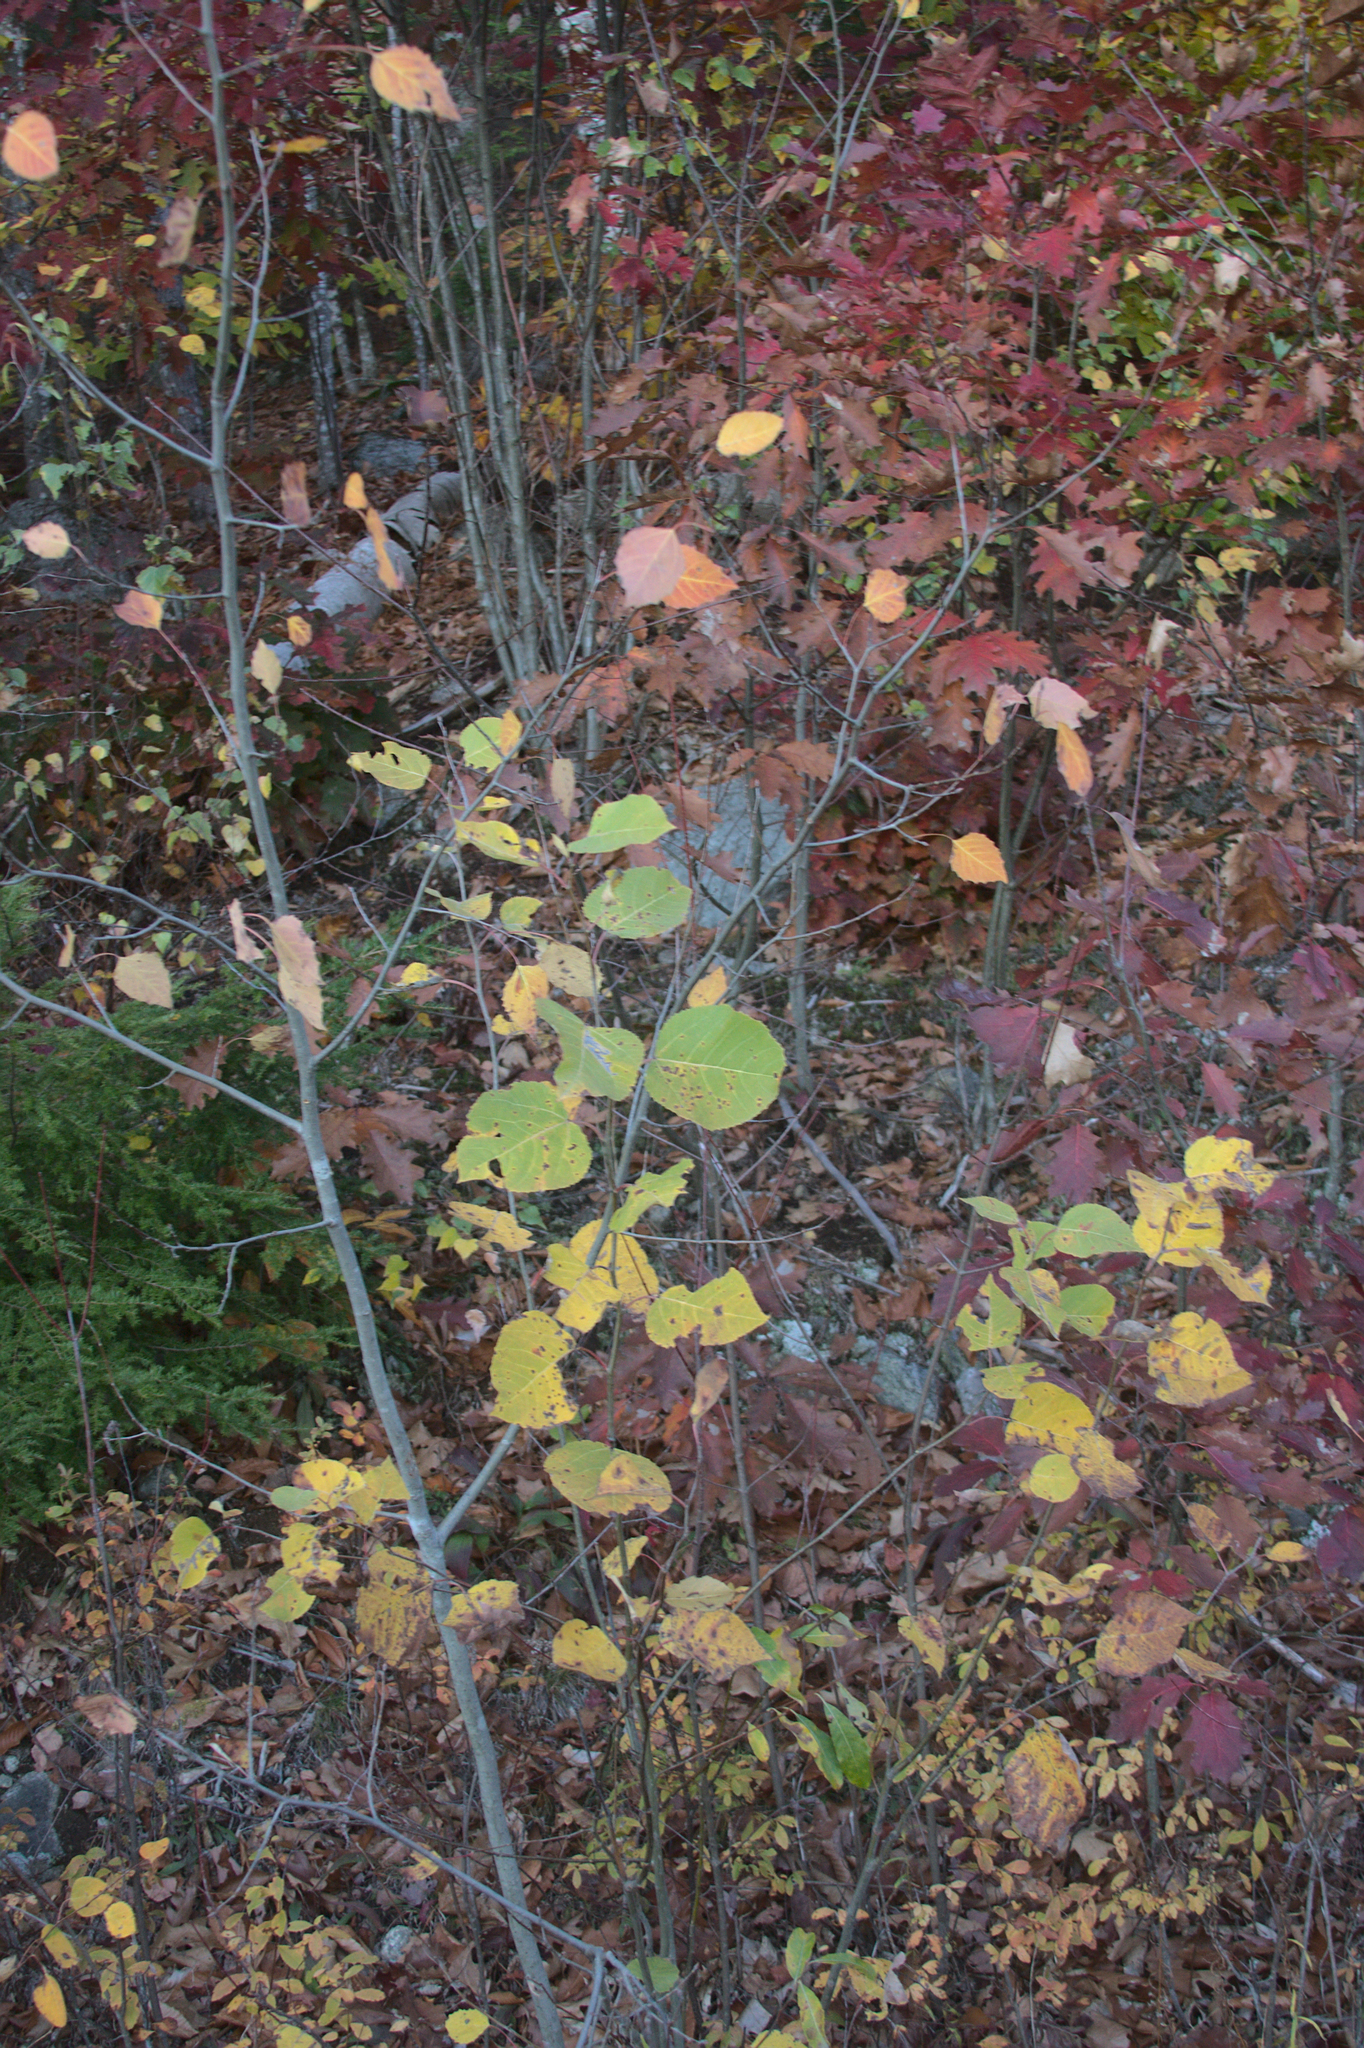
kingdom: Plantae
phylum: Tracheophyta
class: Magnoliopsida
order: Malpighiales
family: Salicaceae
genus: Populus
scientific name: Populus tremuloides
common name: Quaking aspen
